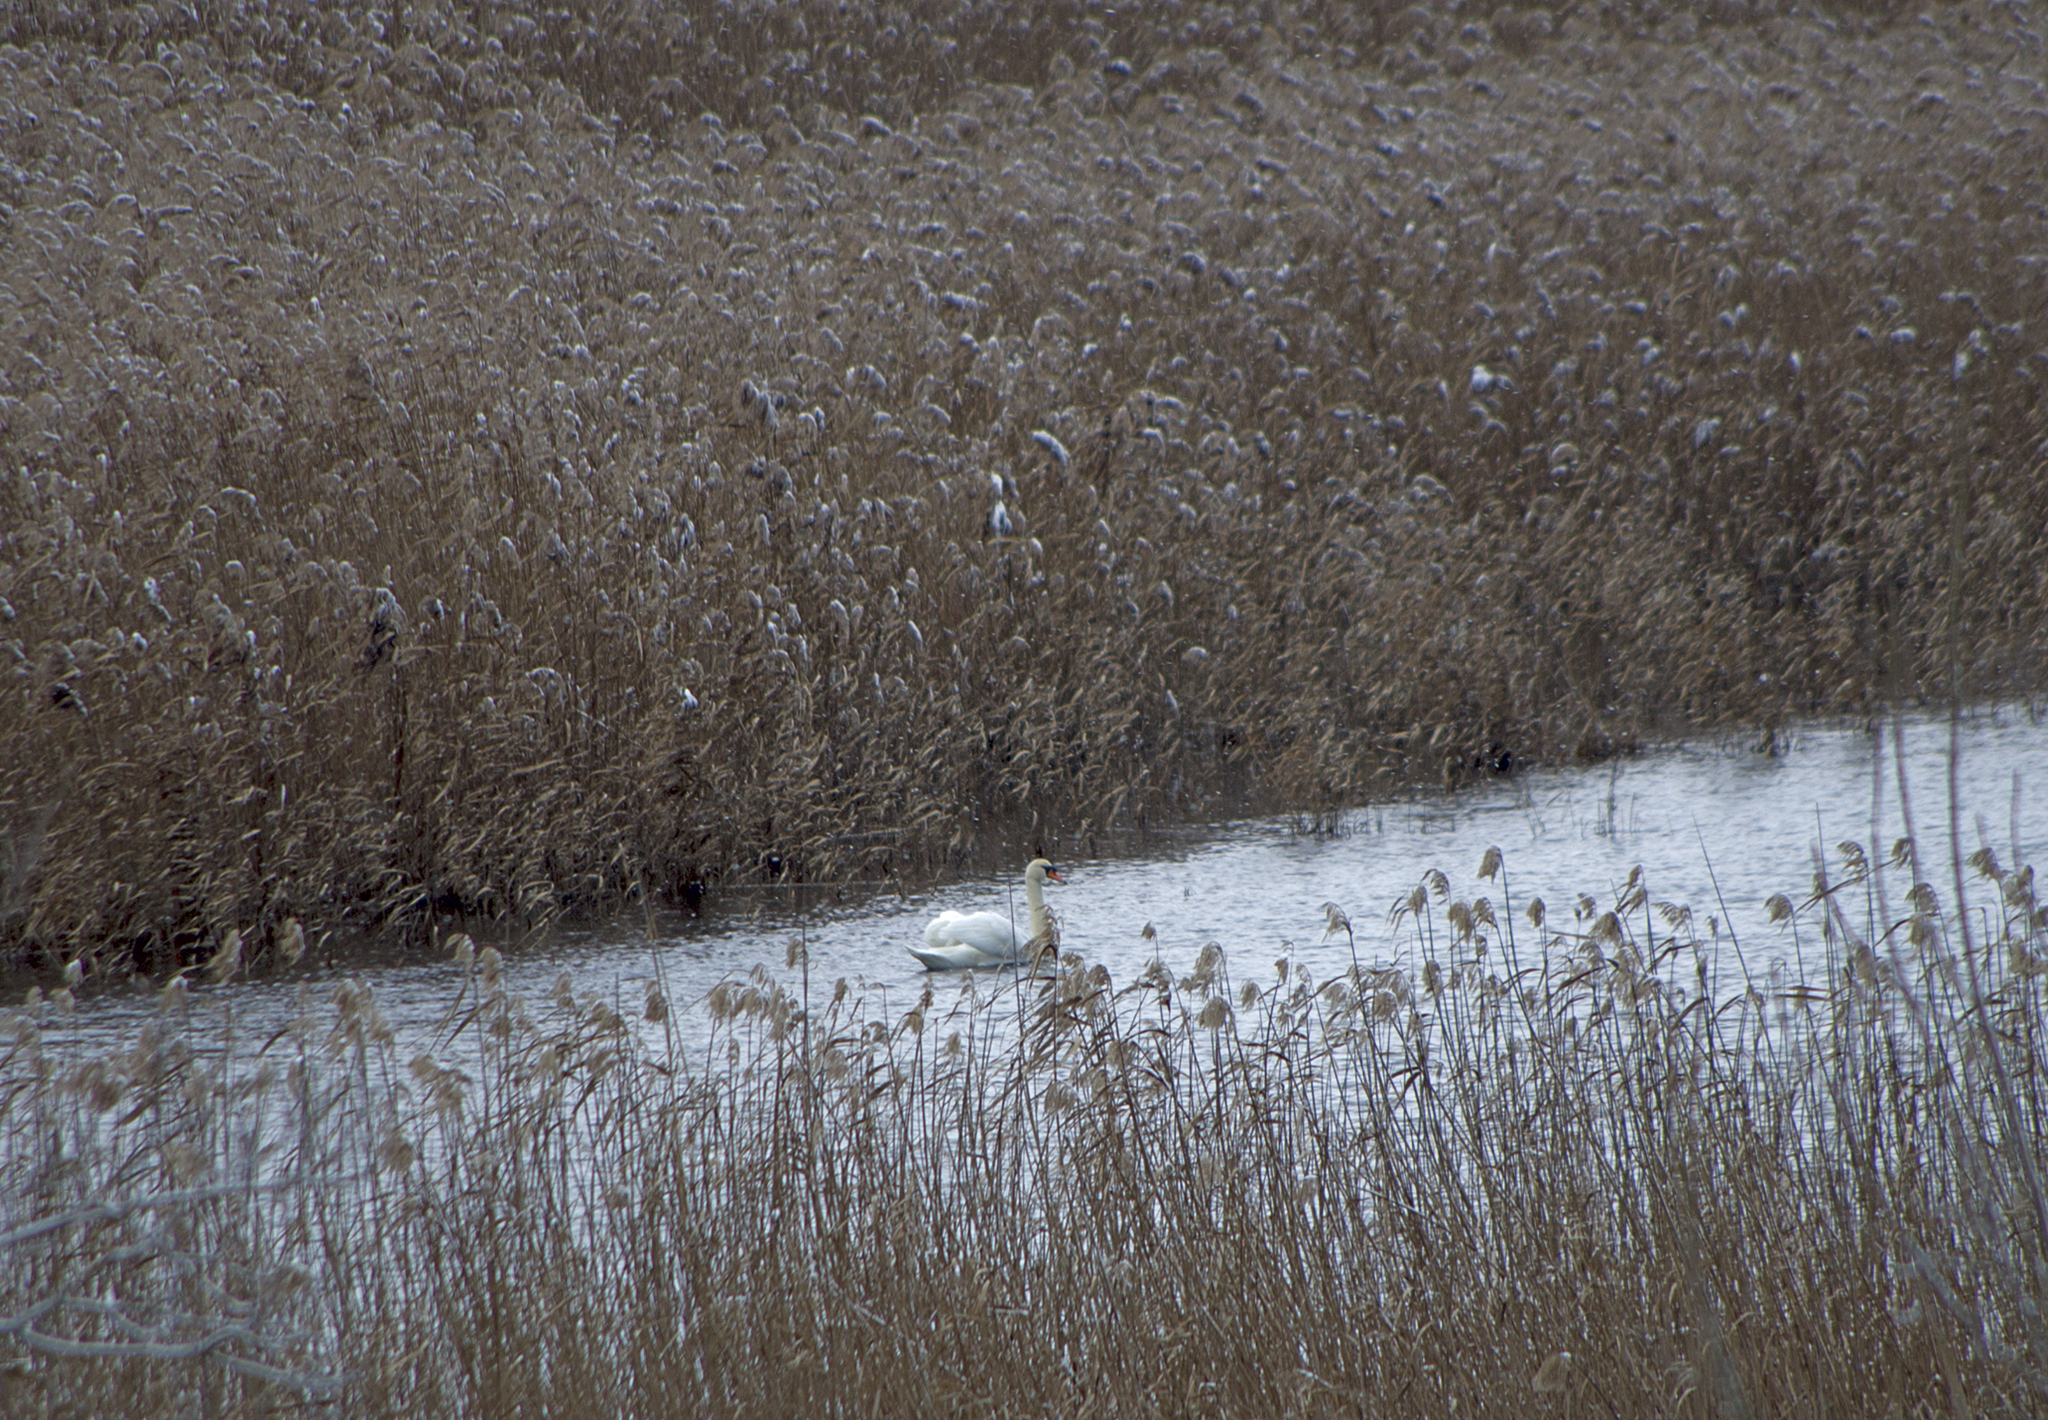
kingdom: Animalia
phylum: Chordata
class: Aves
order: Anseriformes
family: Anatidae
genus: Cygnus
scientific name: Cygnus olor
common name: Mute swan
